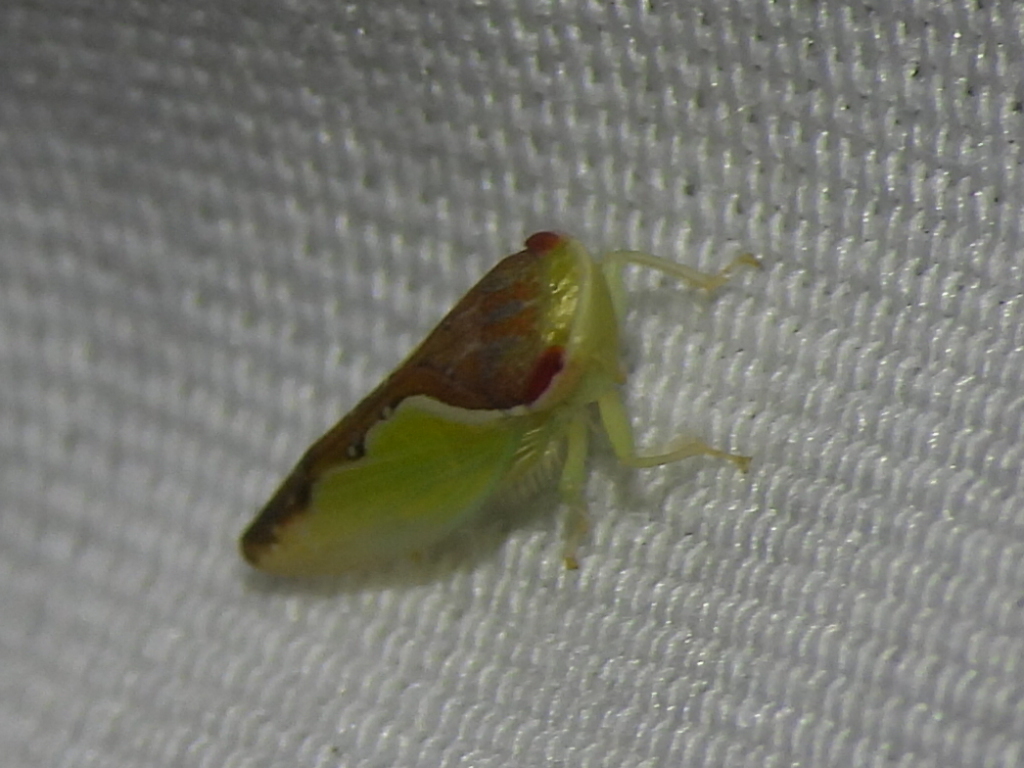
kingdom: Animalia
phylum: Arthropoda
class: Insecta
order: Hemiptera
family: Cicadellidae
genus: Omansobara ing
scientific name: Omansobara ing Omansobara palliolata
